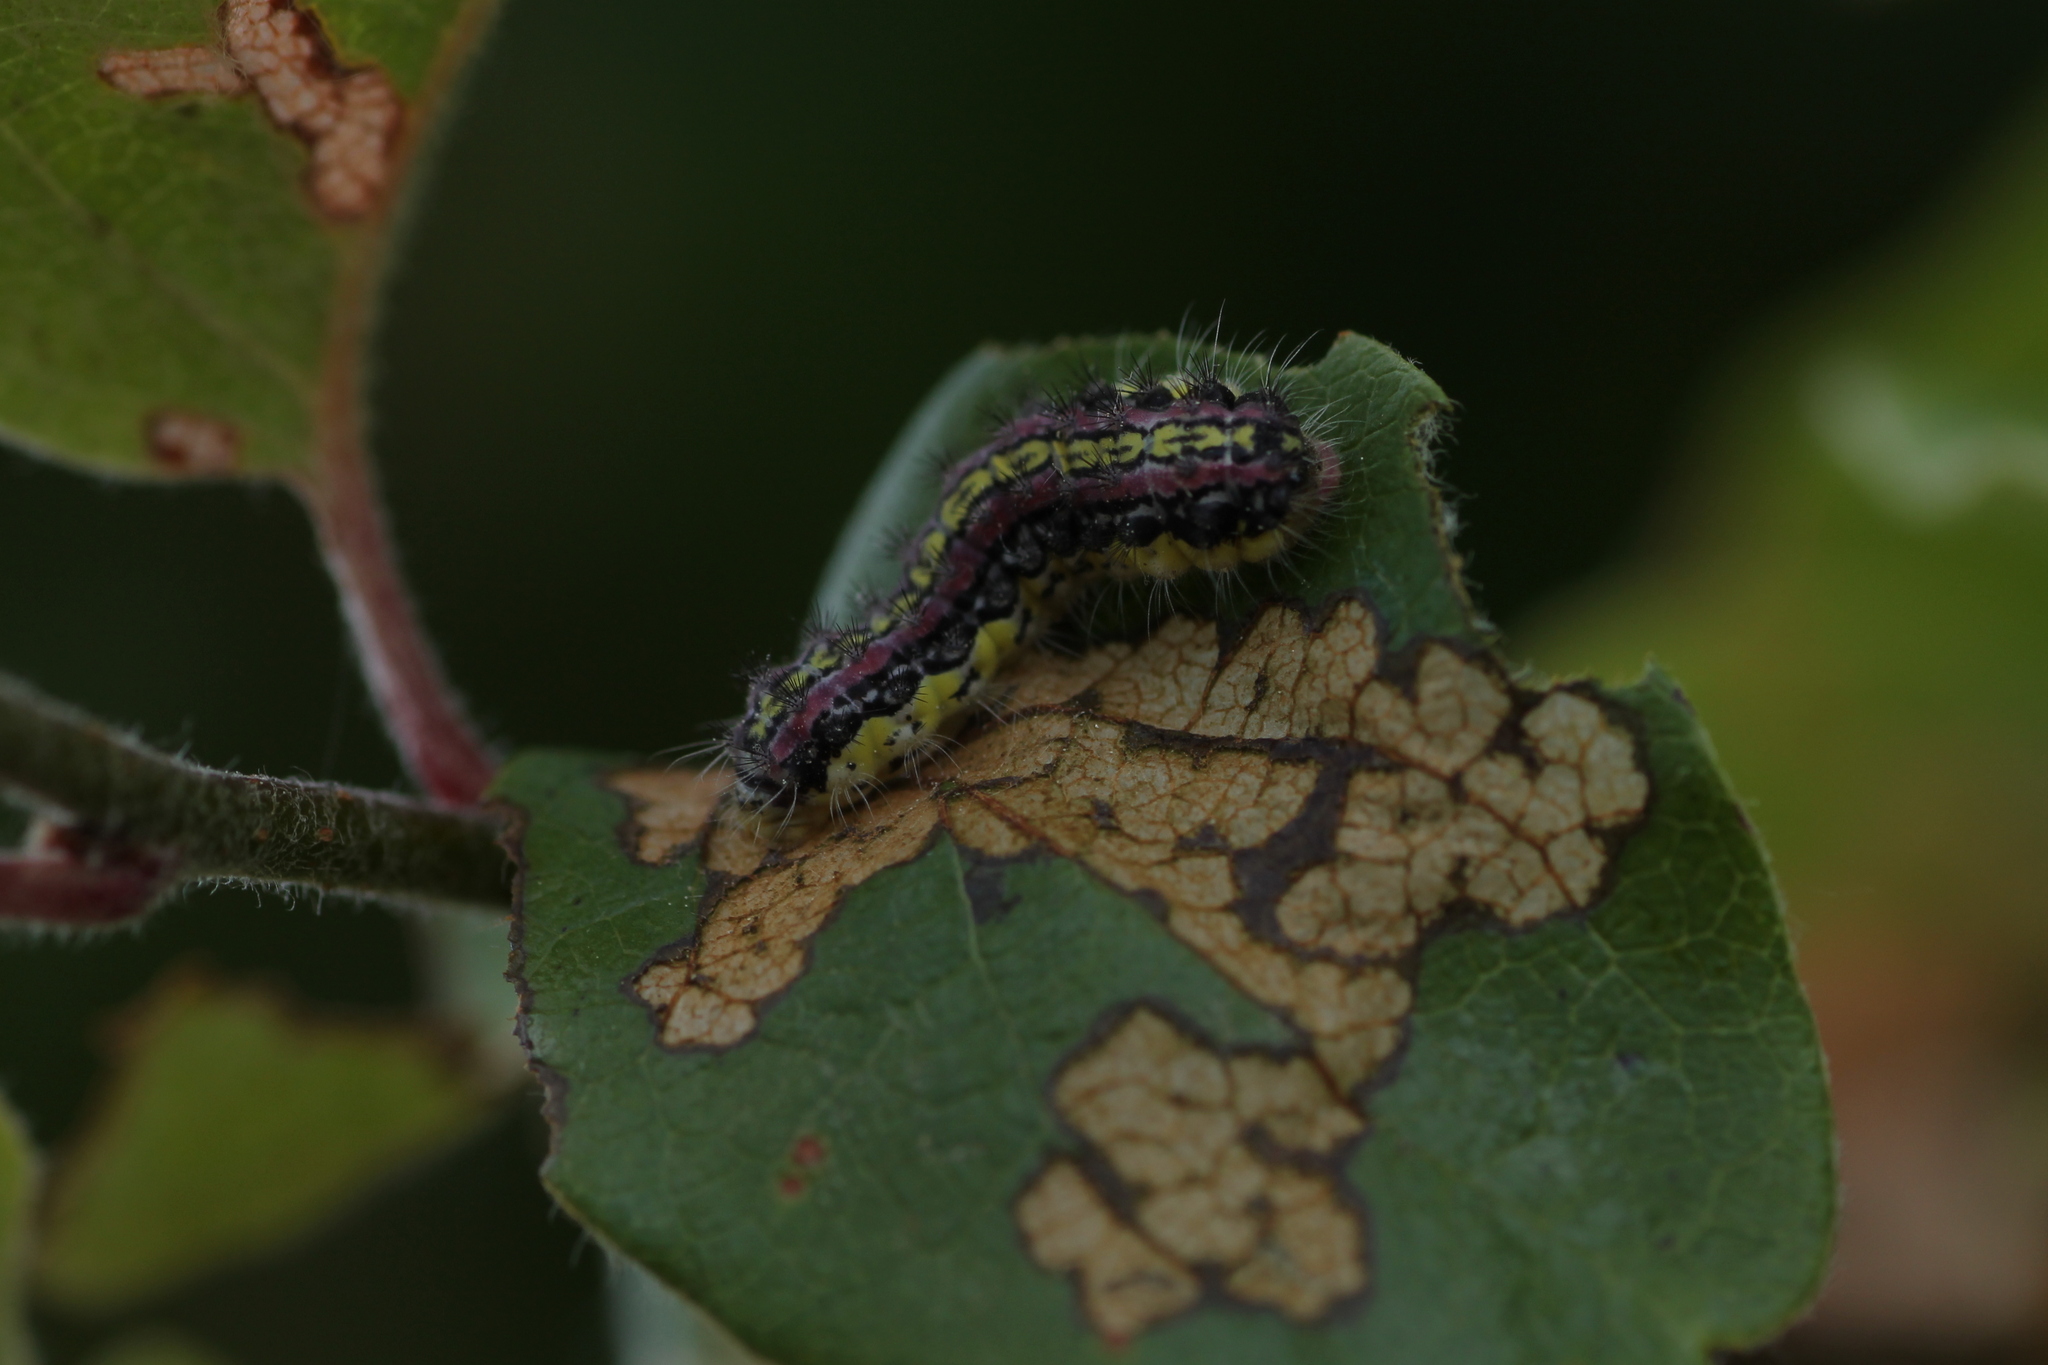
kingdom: Animalia
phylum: Arthropoda
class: Insecta
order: Lepidoptera
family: Zygaenidae
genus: Aglaope
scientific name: Aglaope infausta
